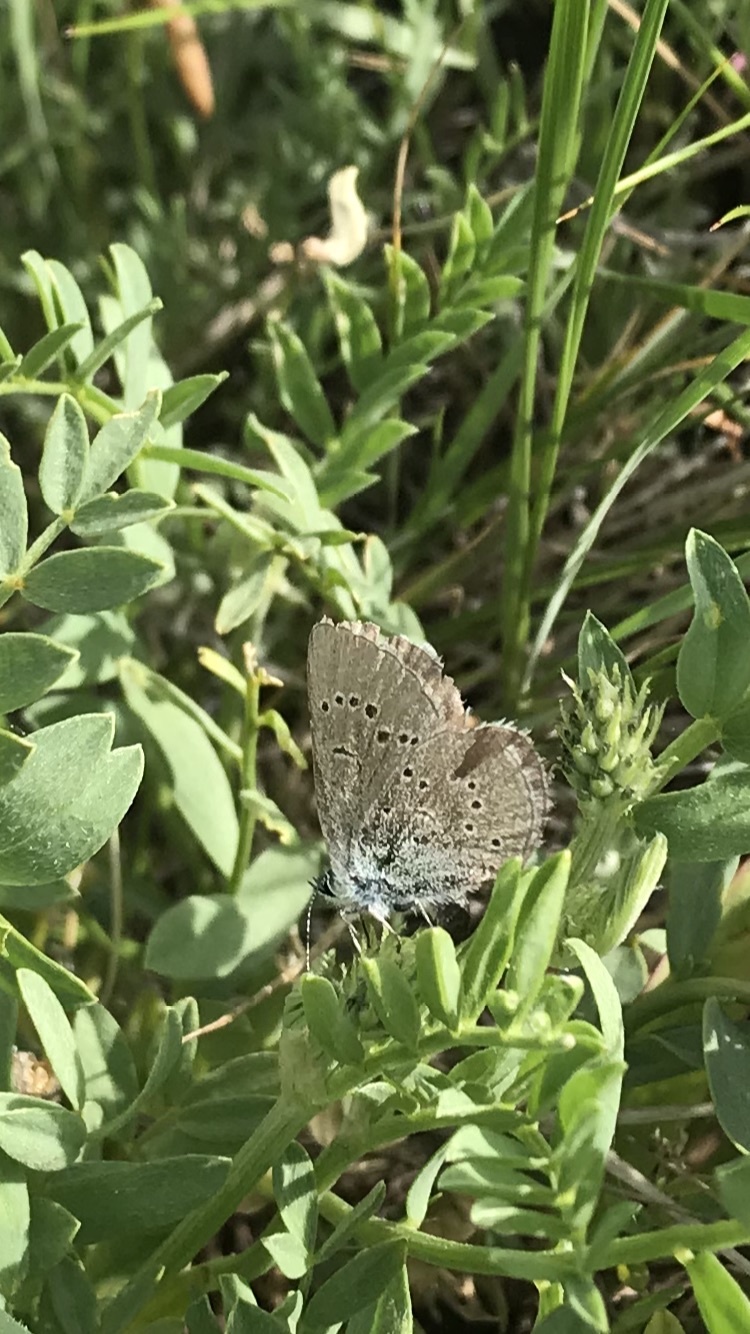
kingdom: Animalia
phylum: Arthropoda
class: Insecta
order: Lepidoptera
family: Lycaenidae
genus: Glaucopsyche
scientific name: Glaucopsyche lygdamus
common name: Silvery blue
